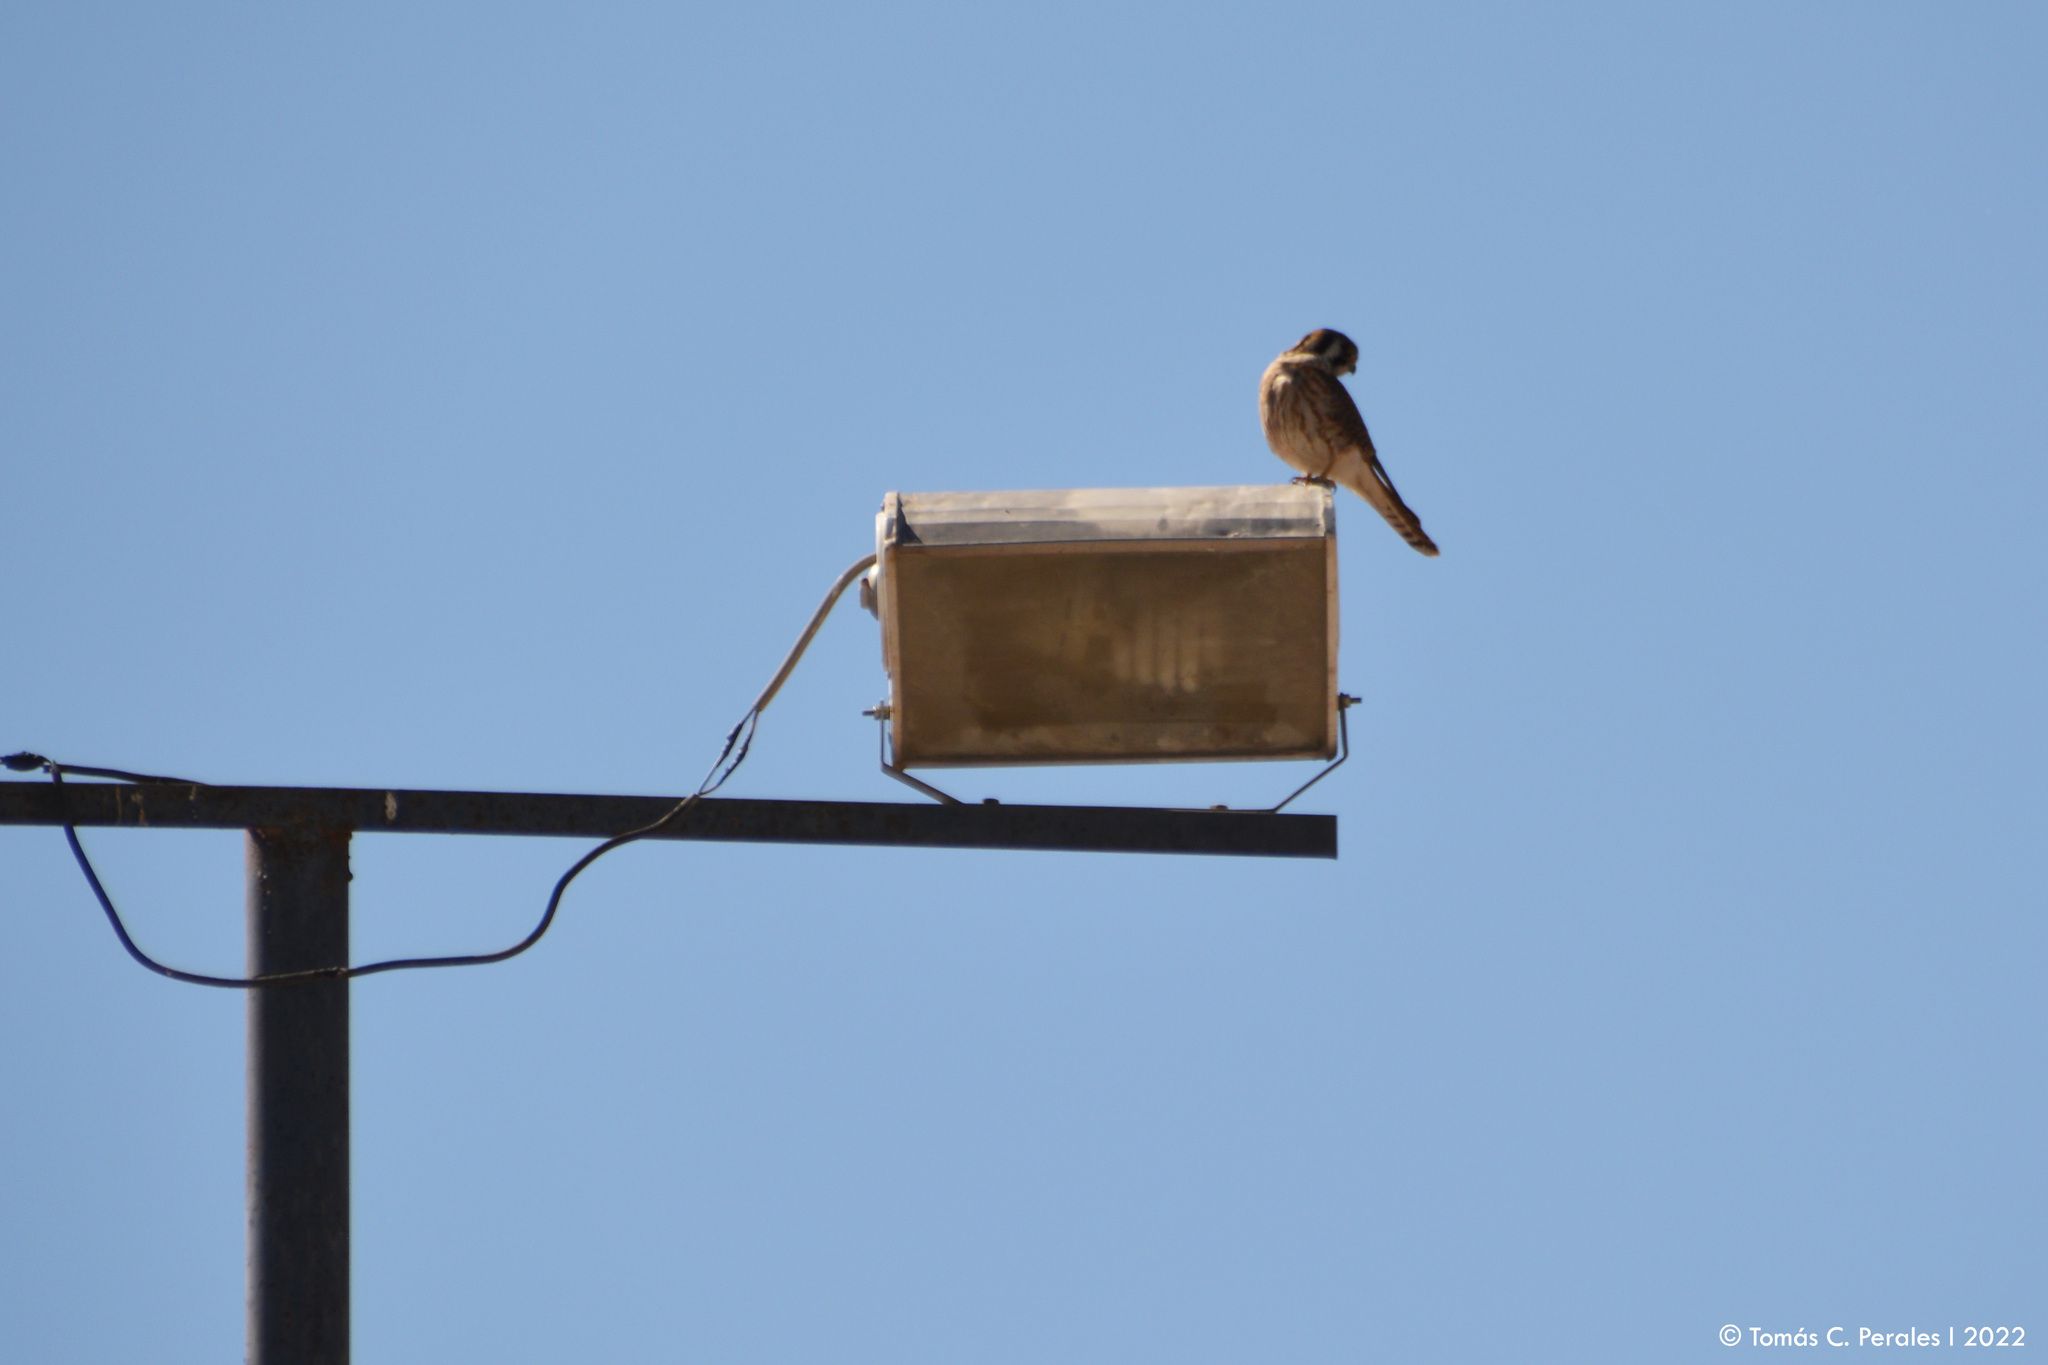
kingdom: Animalia
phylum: Chordata
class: Aves
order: Falconiformes
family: Falconidae
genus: Falco
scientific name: Falco sparverius
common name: American kestrel
